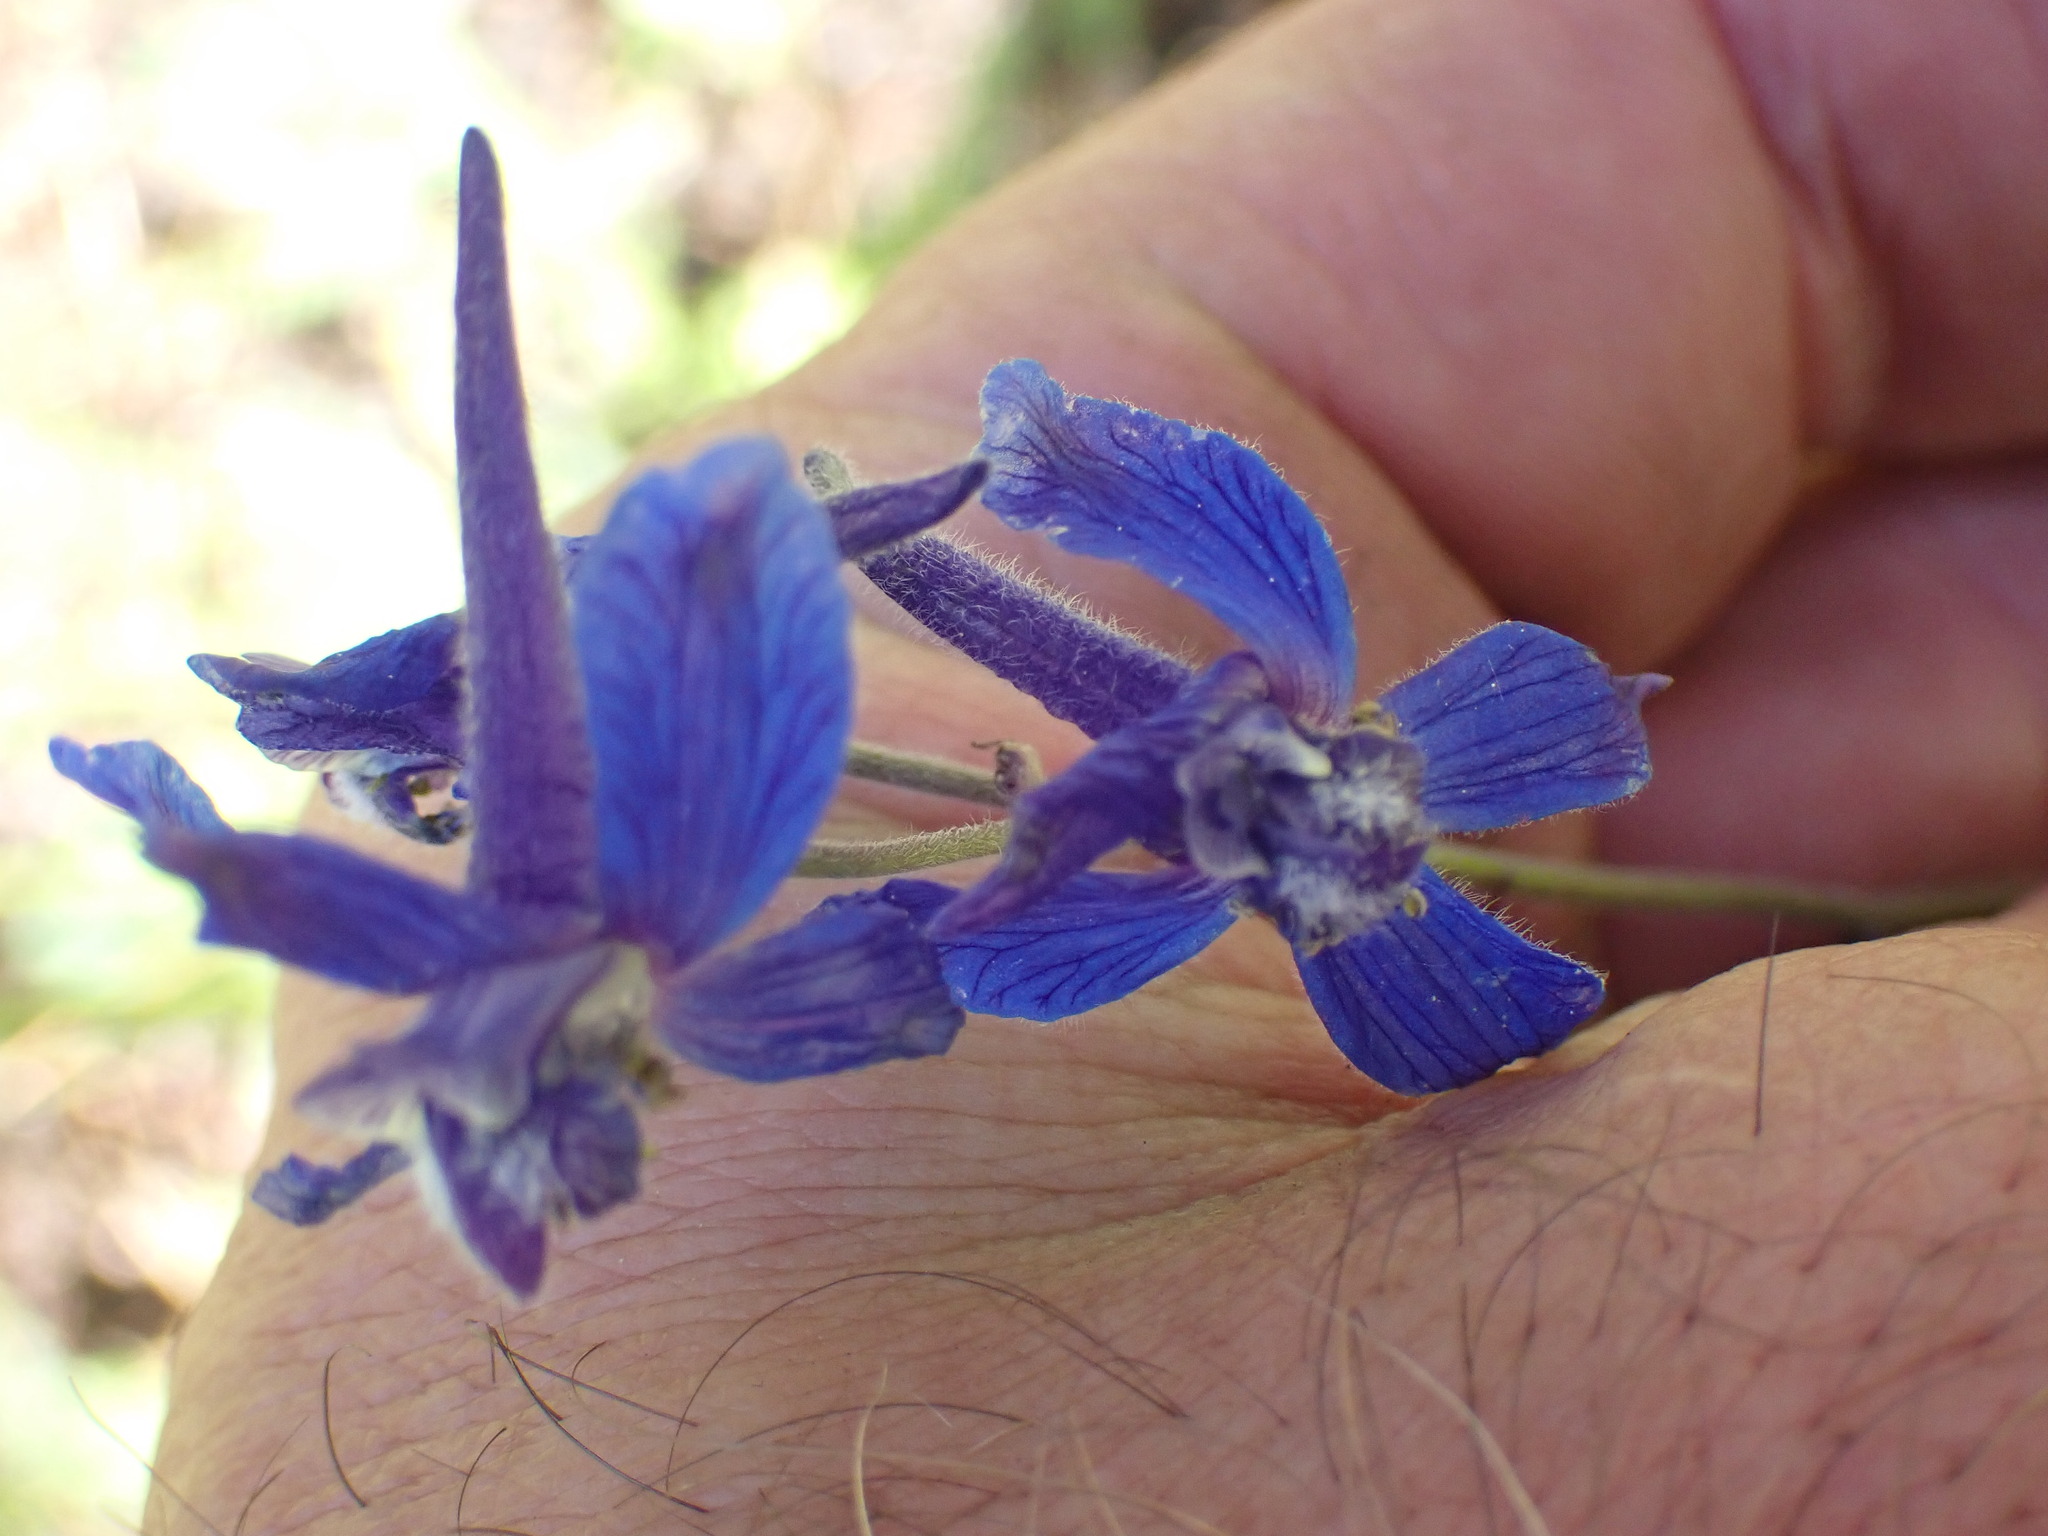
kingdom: Plantae
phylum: Tracheophyta
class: Magnoliopsida
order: Ranunculales
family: Ranunculaceae
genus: Delphinium
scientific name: Delphinium nuttallianum
